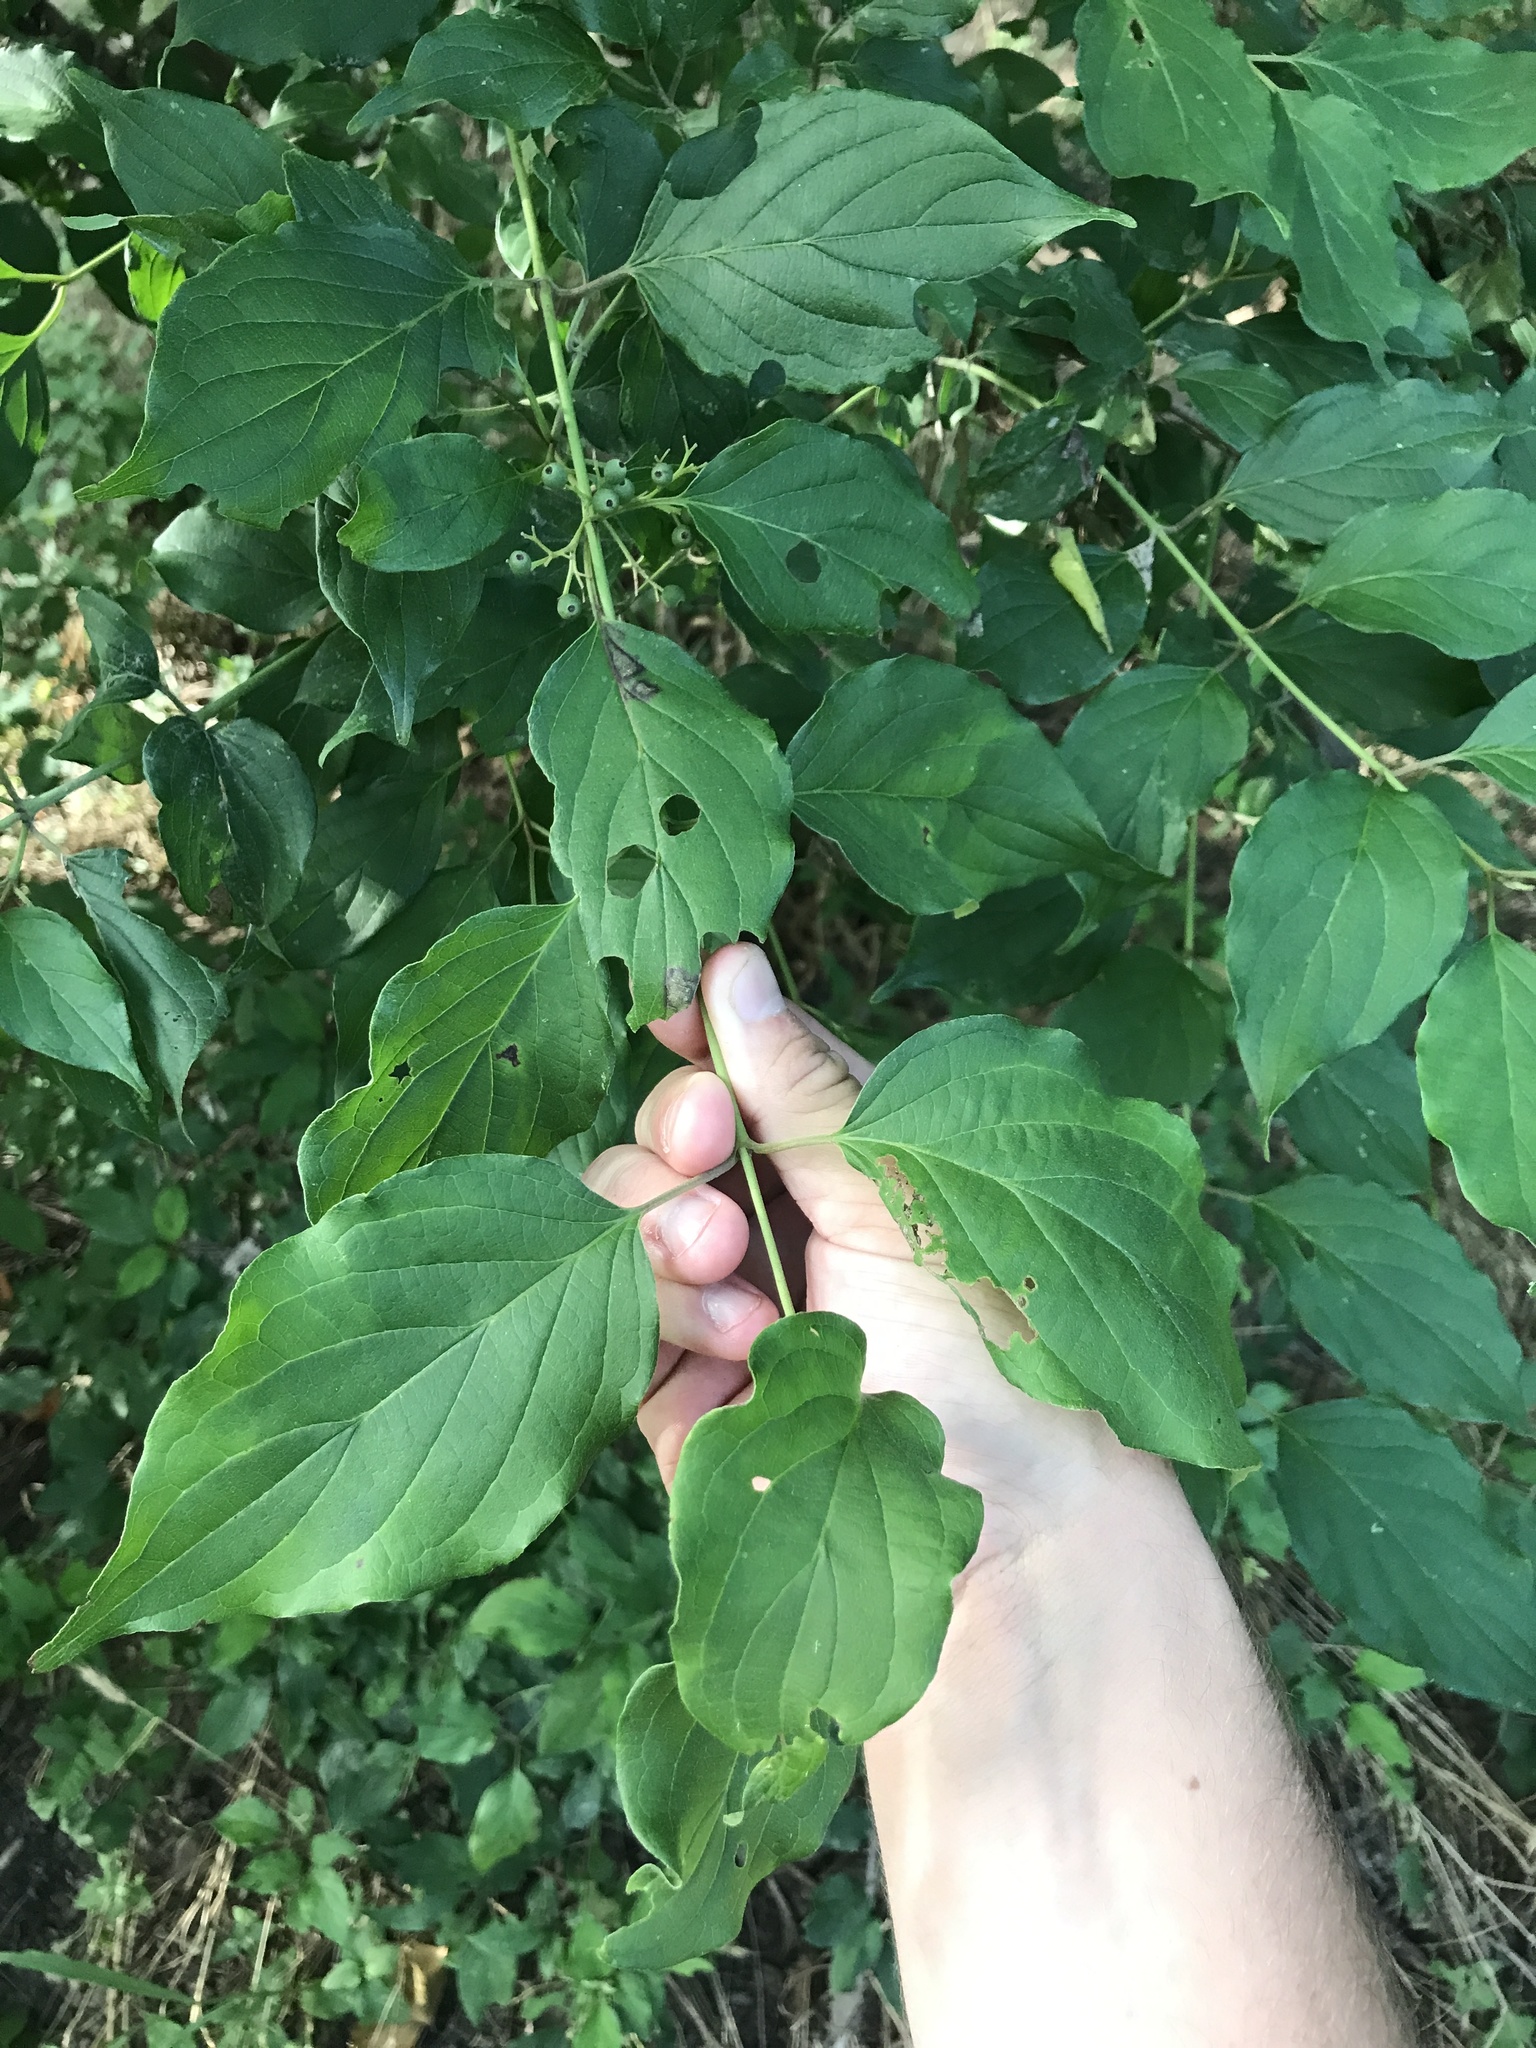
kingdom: Plantae
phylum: Tracheophyta
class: Magnoliopsida
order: Cornales
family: Cornaceae
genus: Cornus
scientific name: Cornus drummondii
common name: Rough-leaf dogwood
